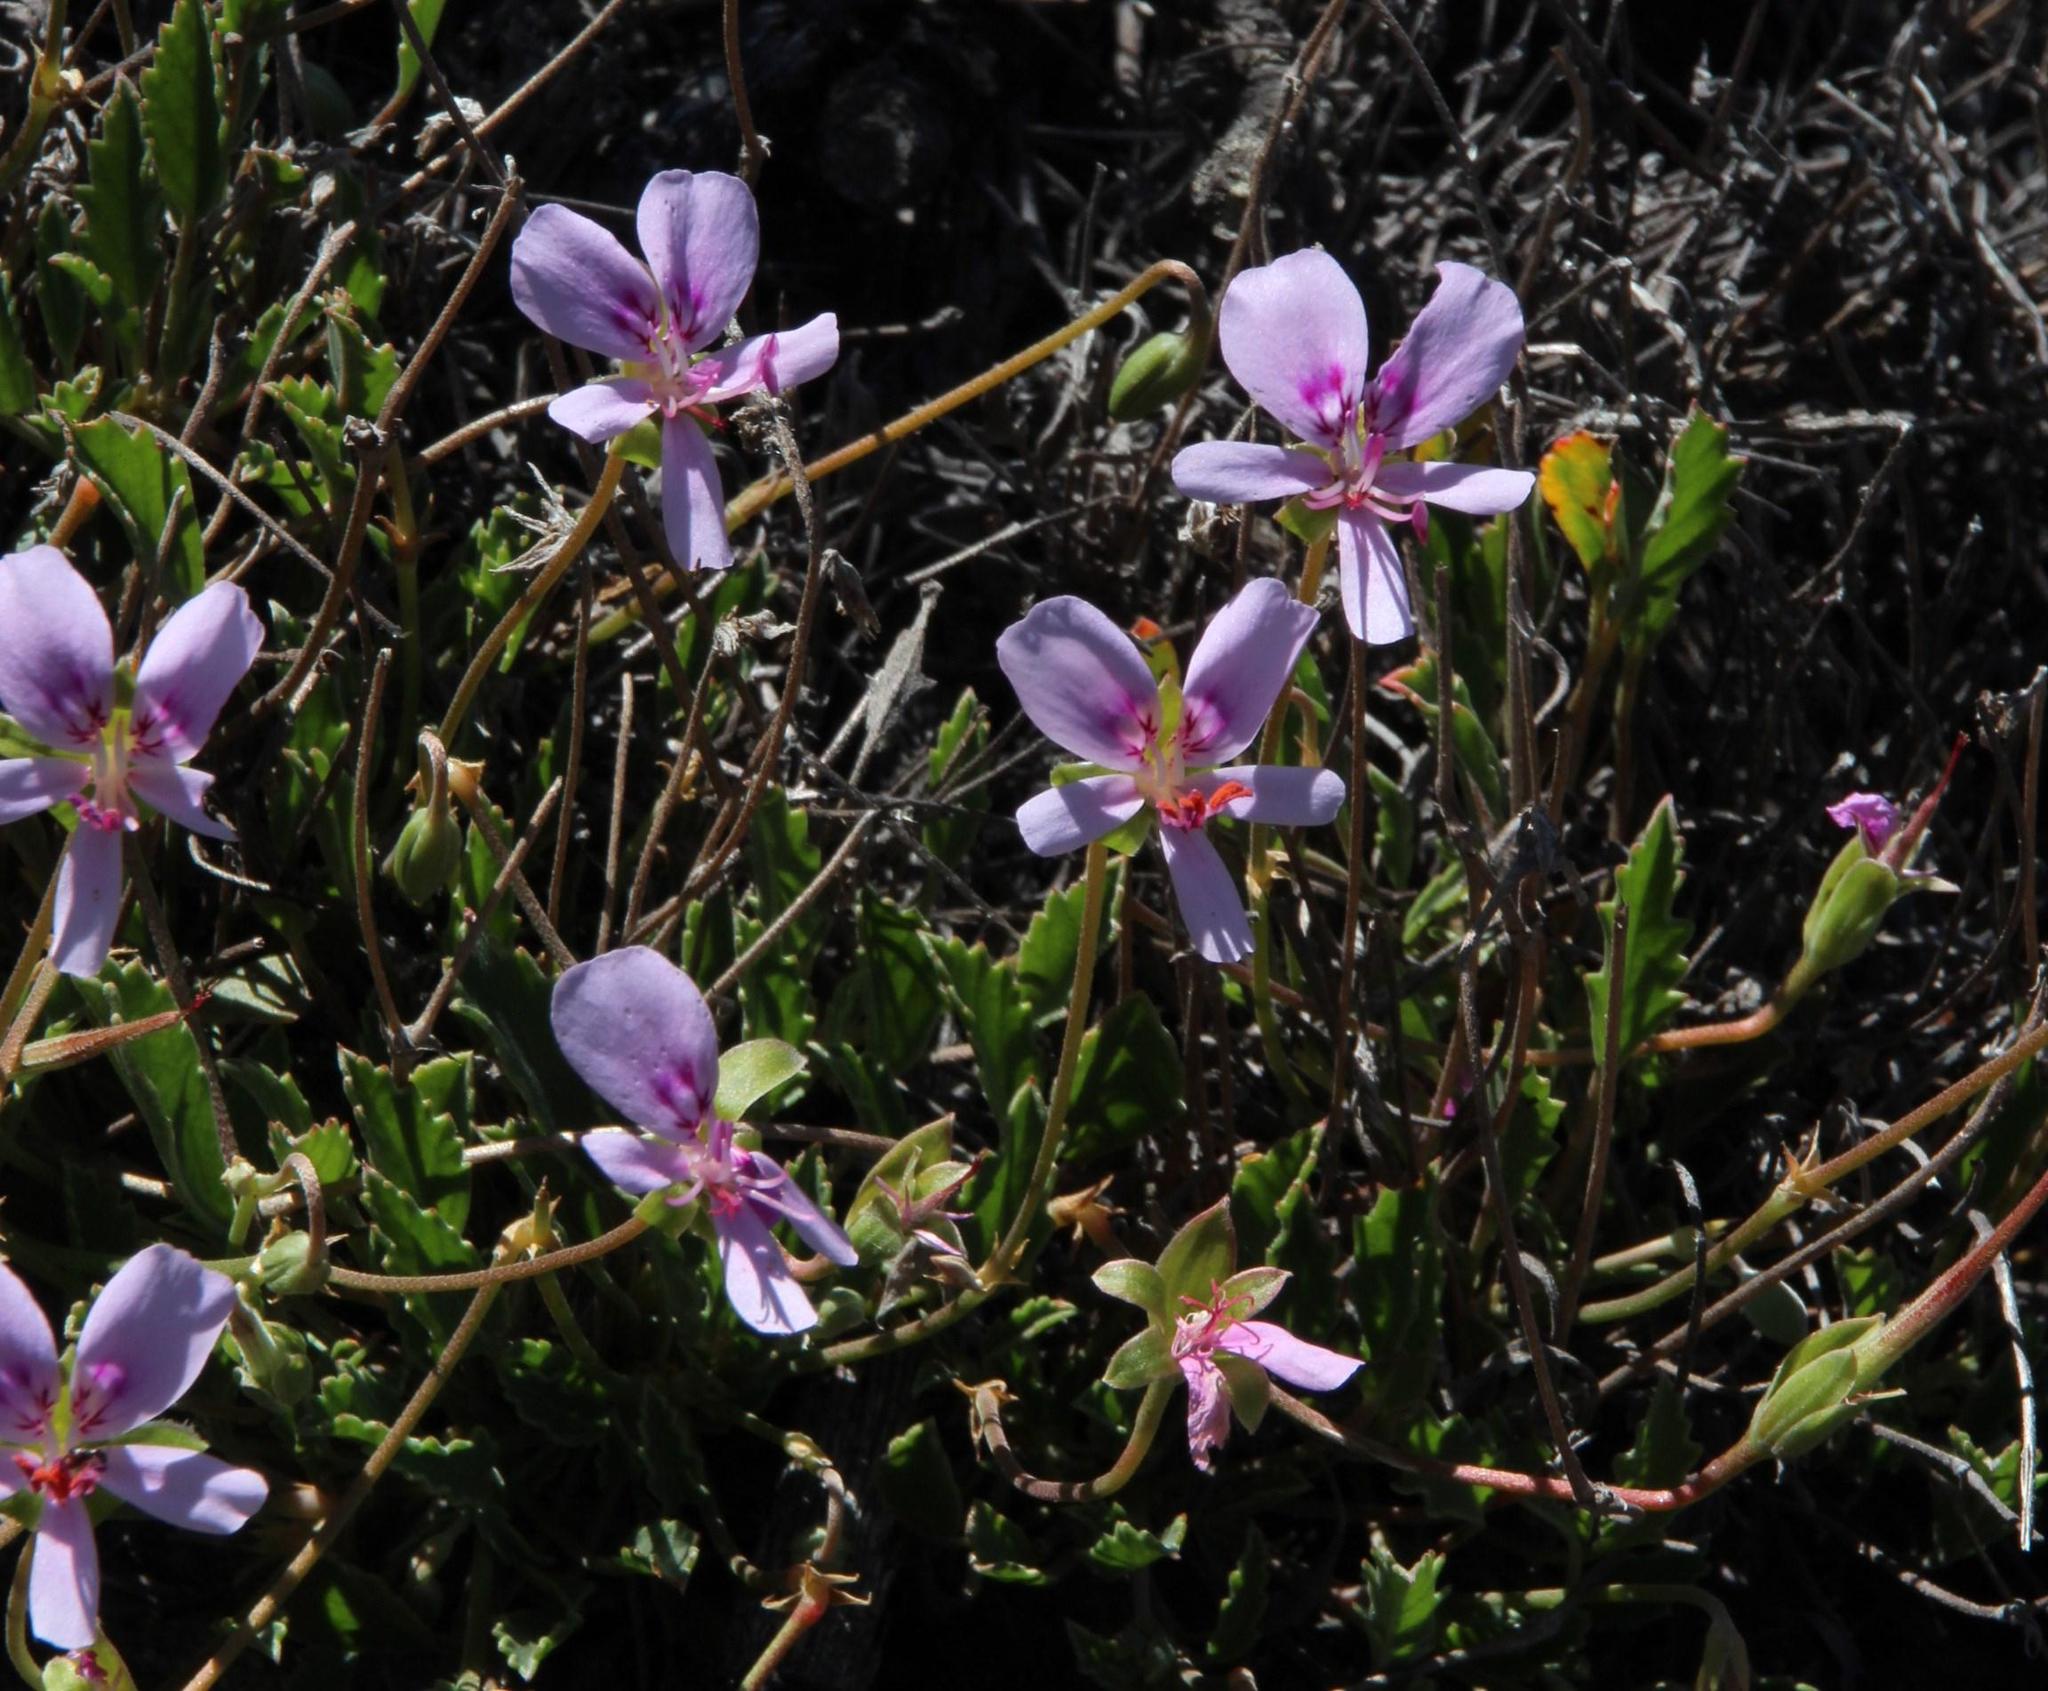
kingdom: Plantae
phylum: Tracheophyta
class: Magnoliopsida
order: Geraniales
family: Geraniaceae
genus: Pelargonium
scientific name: Pelargonium ovale
